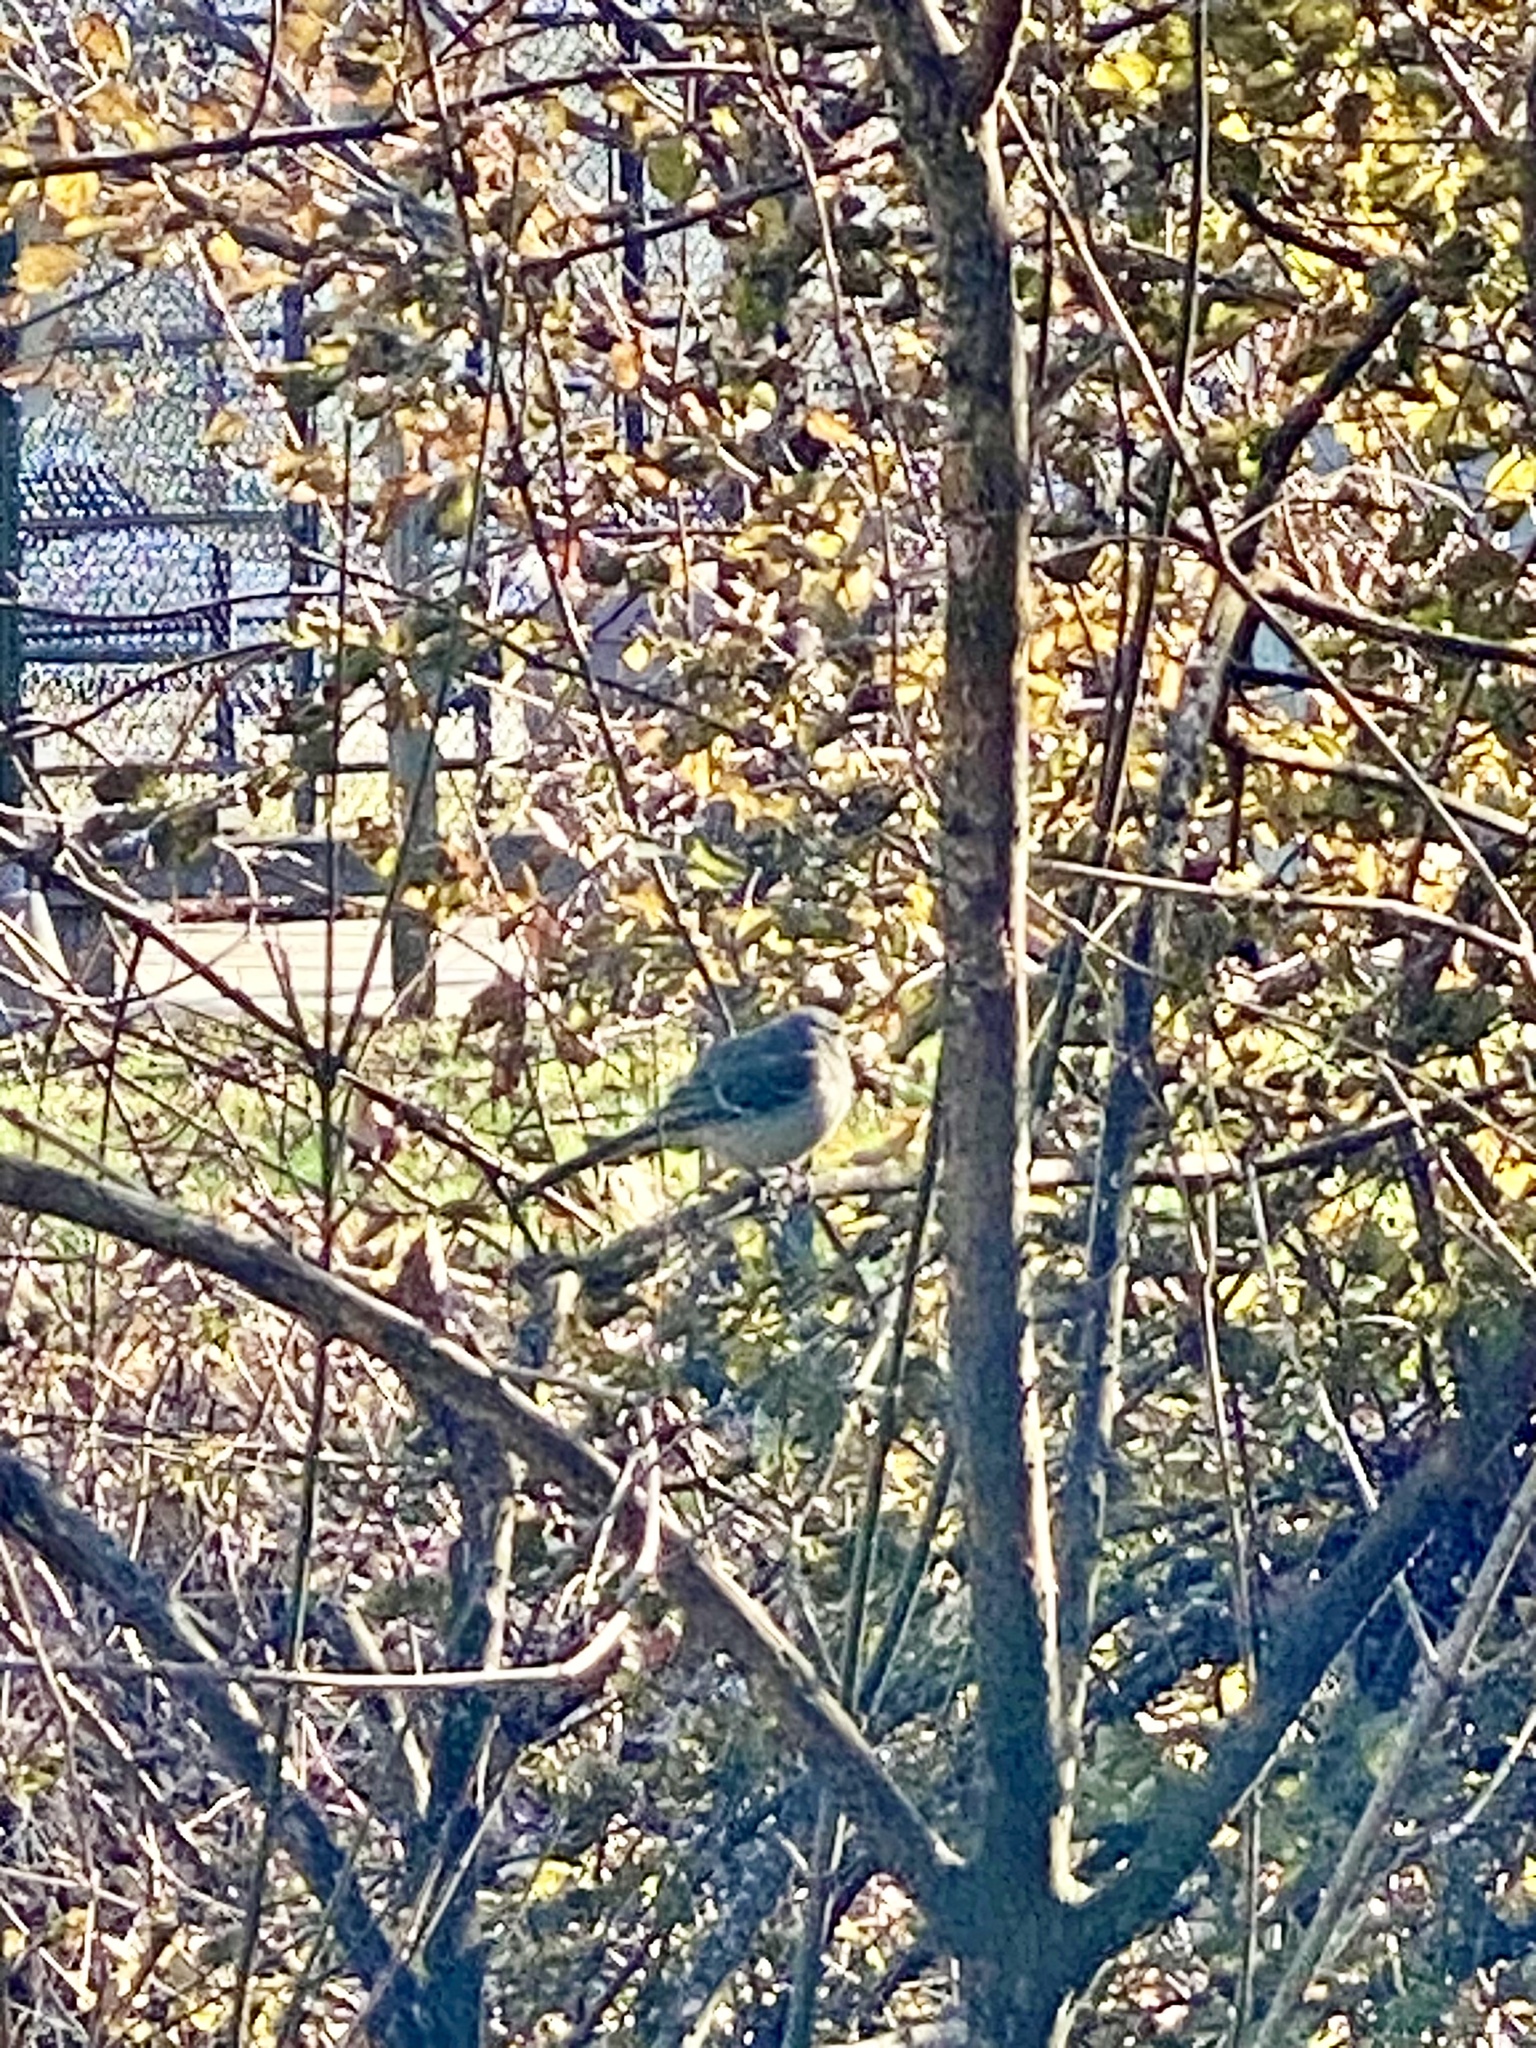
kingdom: Animalia
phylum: Chordata
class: Aves
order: Passeriformes
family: Mimidae
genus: Mimus
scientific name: Mimus polyglottos
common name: Northern mockingbird
